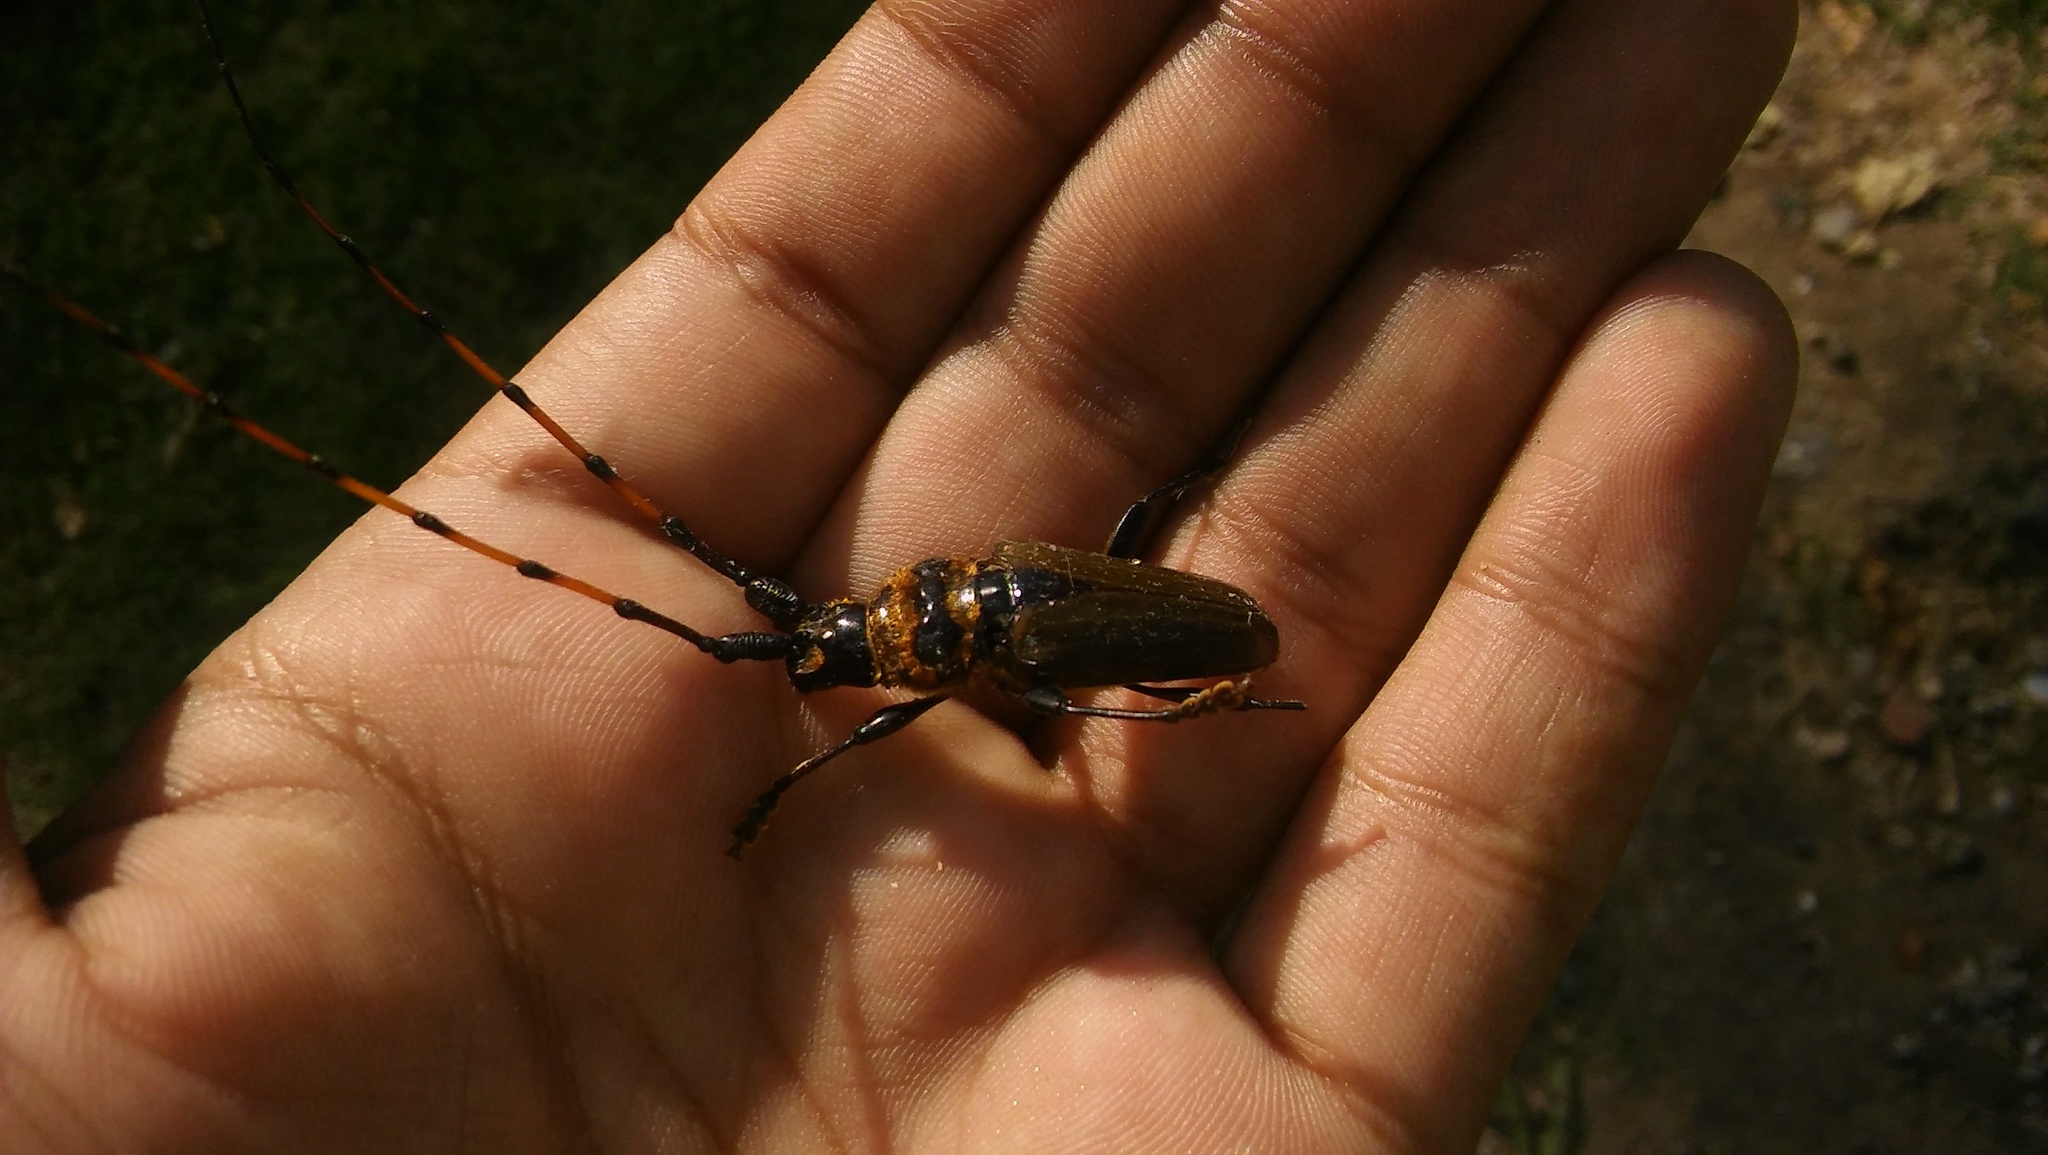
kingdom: Animalia
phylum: Arthropoda
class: Insecta
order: Coleoptera
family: Cerambycidae
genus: Retrachydes
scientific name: Retrachydes thoracicus
